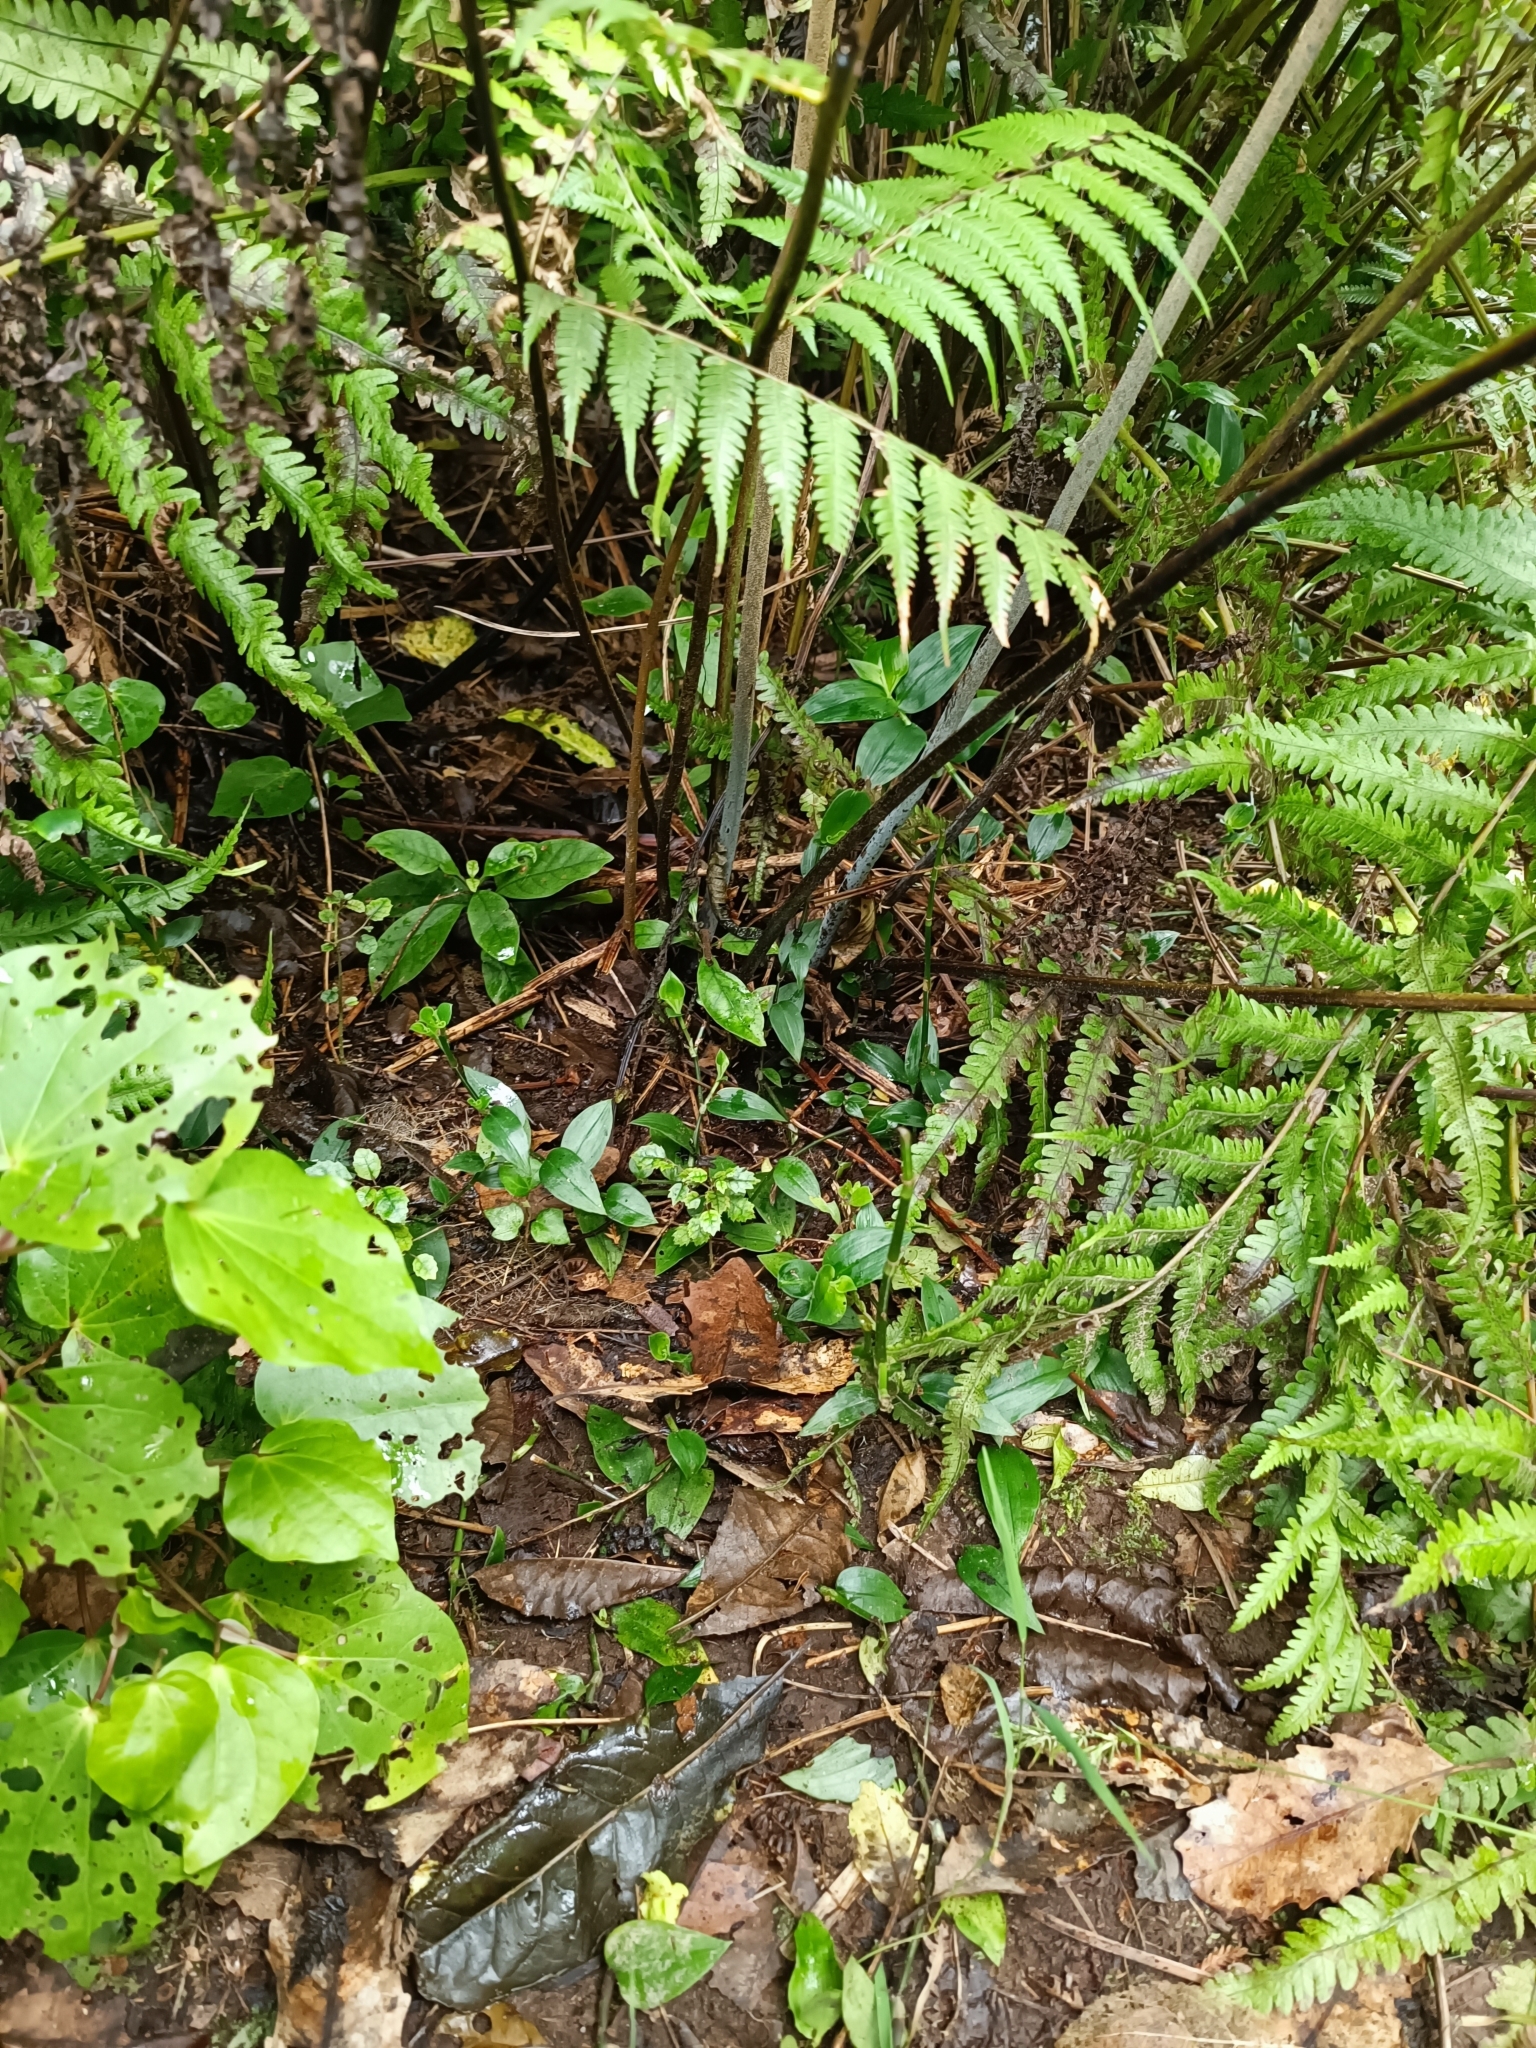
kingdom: Plantae
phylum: Tracheophyta
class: Liliopsida
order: Commelinales
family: Commelinaceae
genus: Tradescantia
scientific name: Tradescantia fluminensis
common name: Wandering-jew
